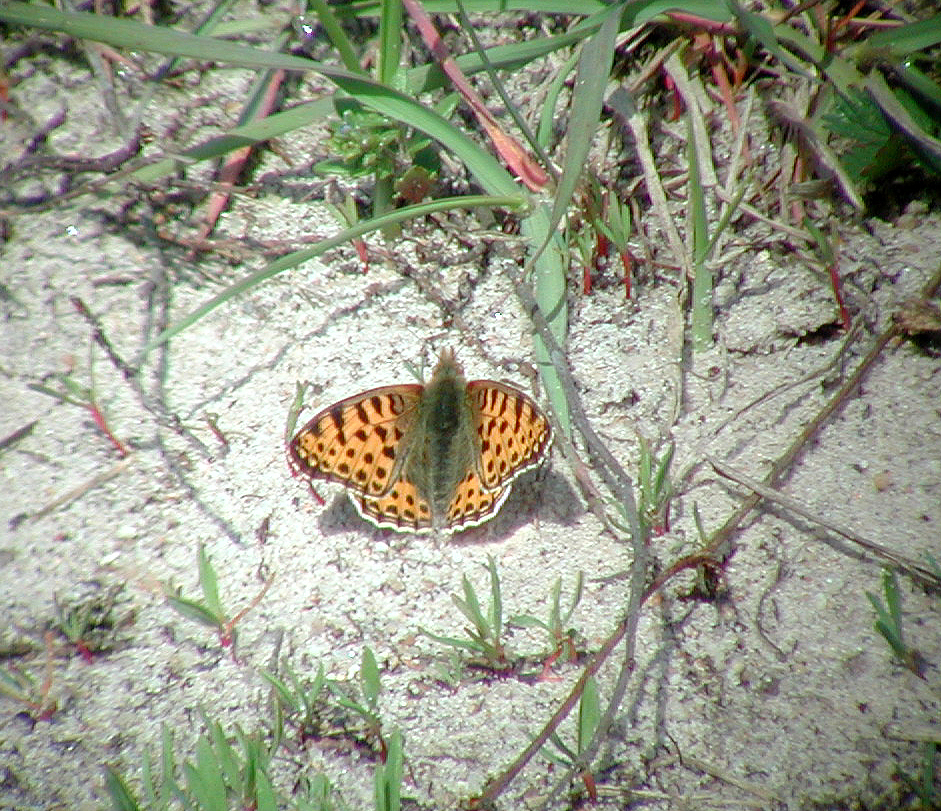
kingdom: Animalia
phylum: Arthropoda
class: Insecta
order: Lepidoptera
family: Nymphalidae
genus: Issoria
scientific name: Issoria lathonia
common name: Queen of spain fritillary
